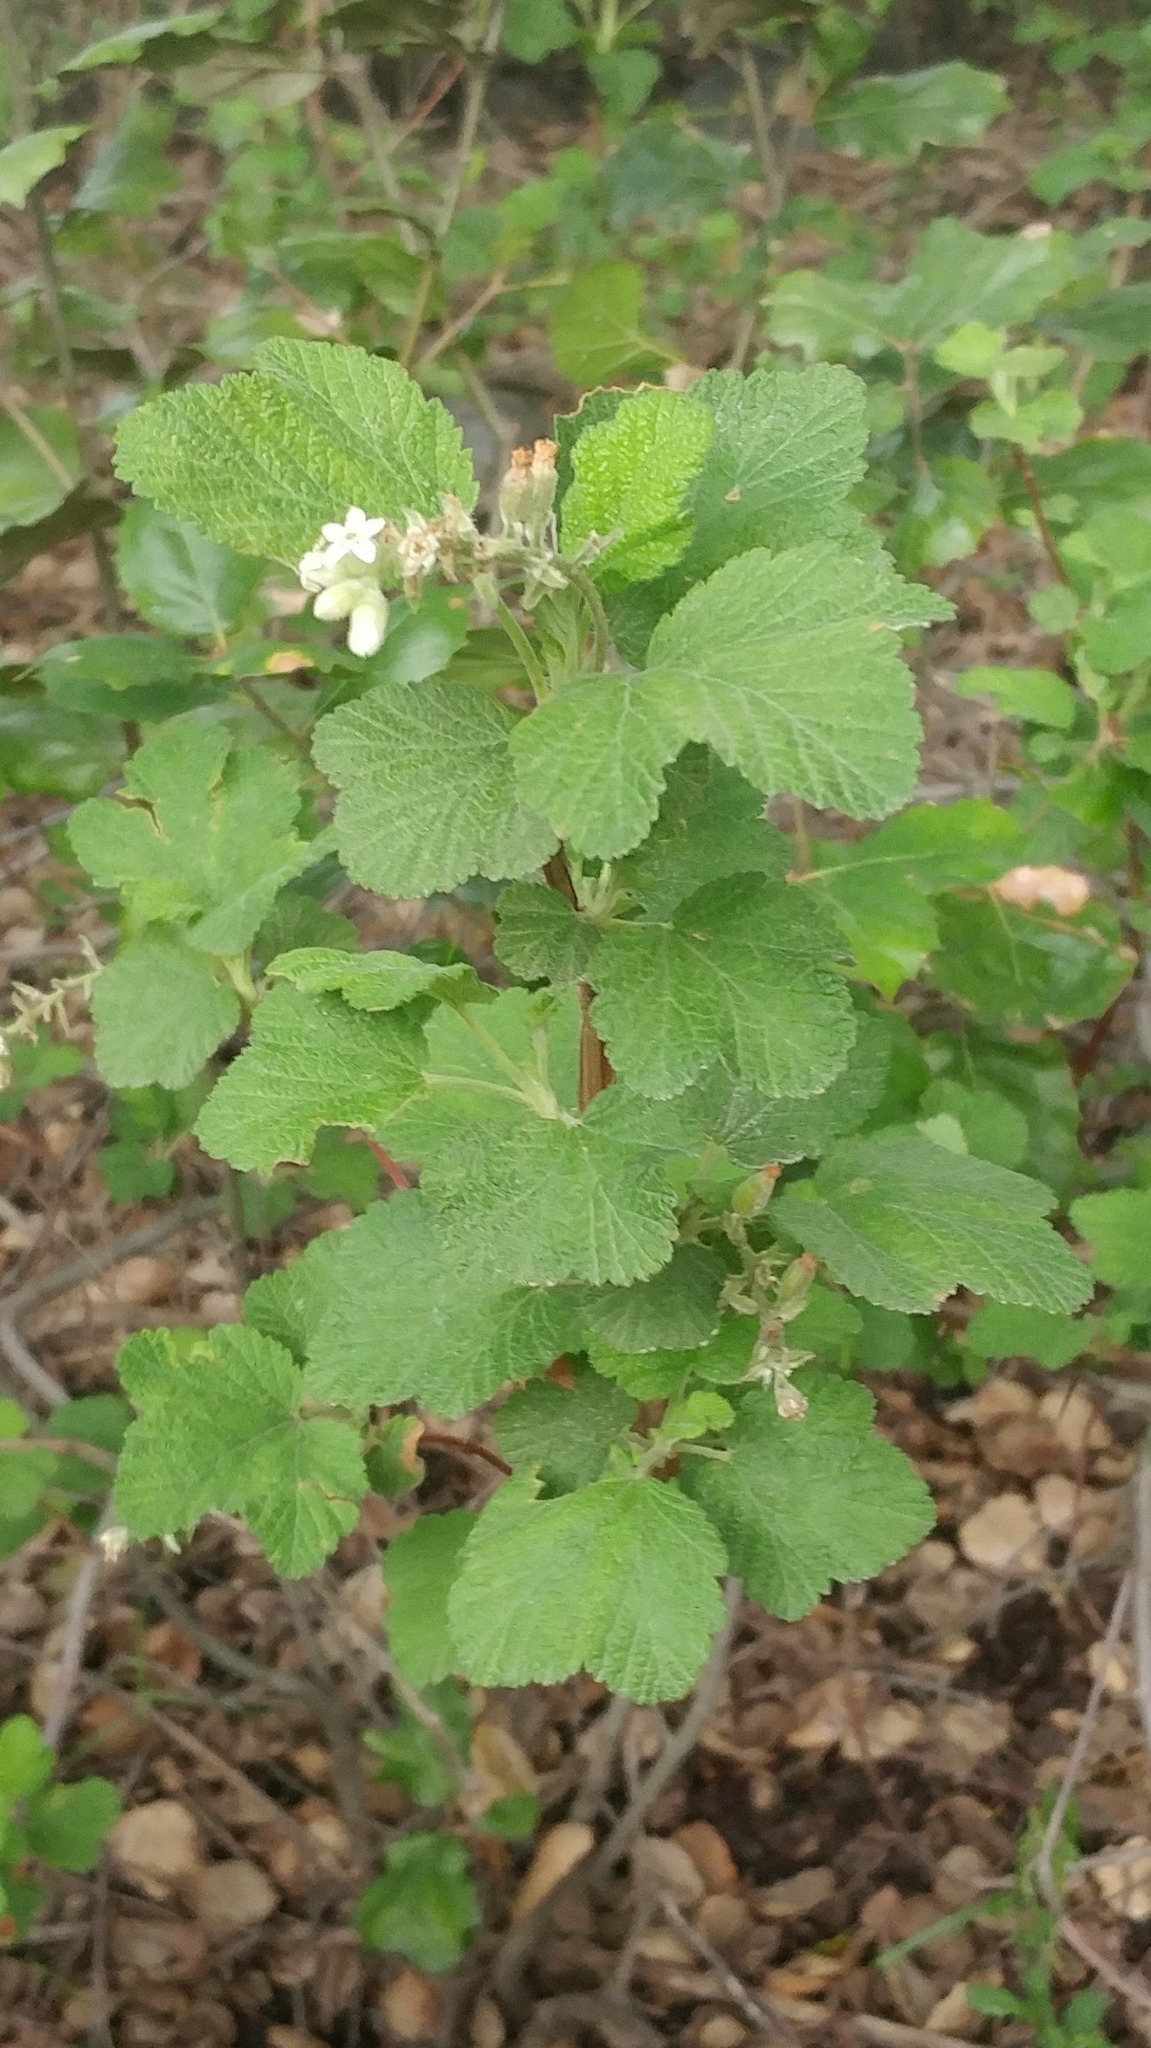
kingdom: Plantae
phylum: Tracheophyta
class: Magnoliopsida
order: Saxifragales
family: Grossulariaceae
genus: Ribes
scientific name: Ribes indecorum
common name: White-flower currant
